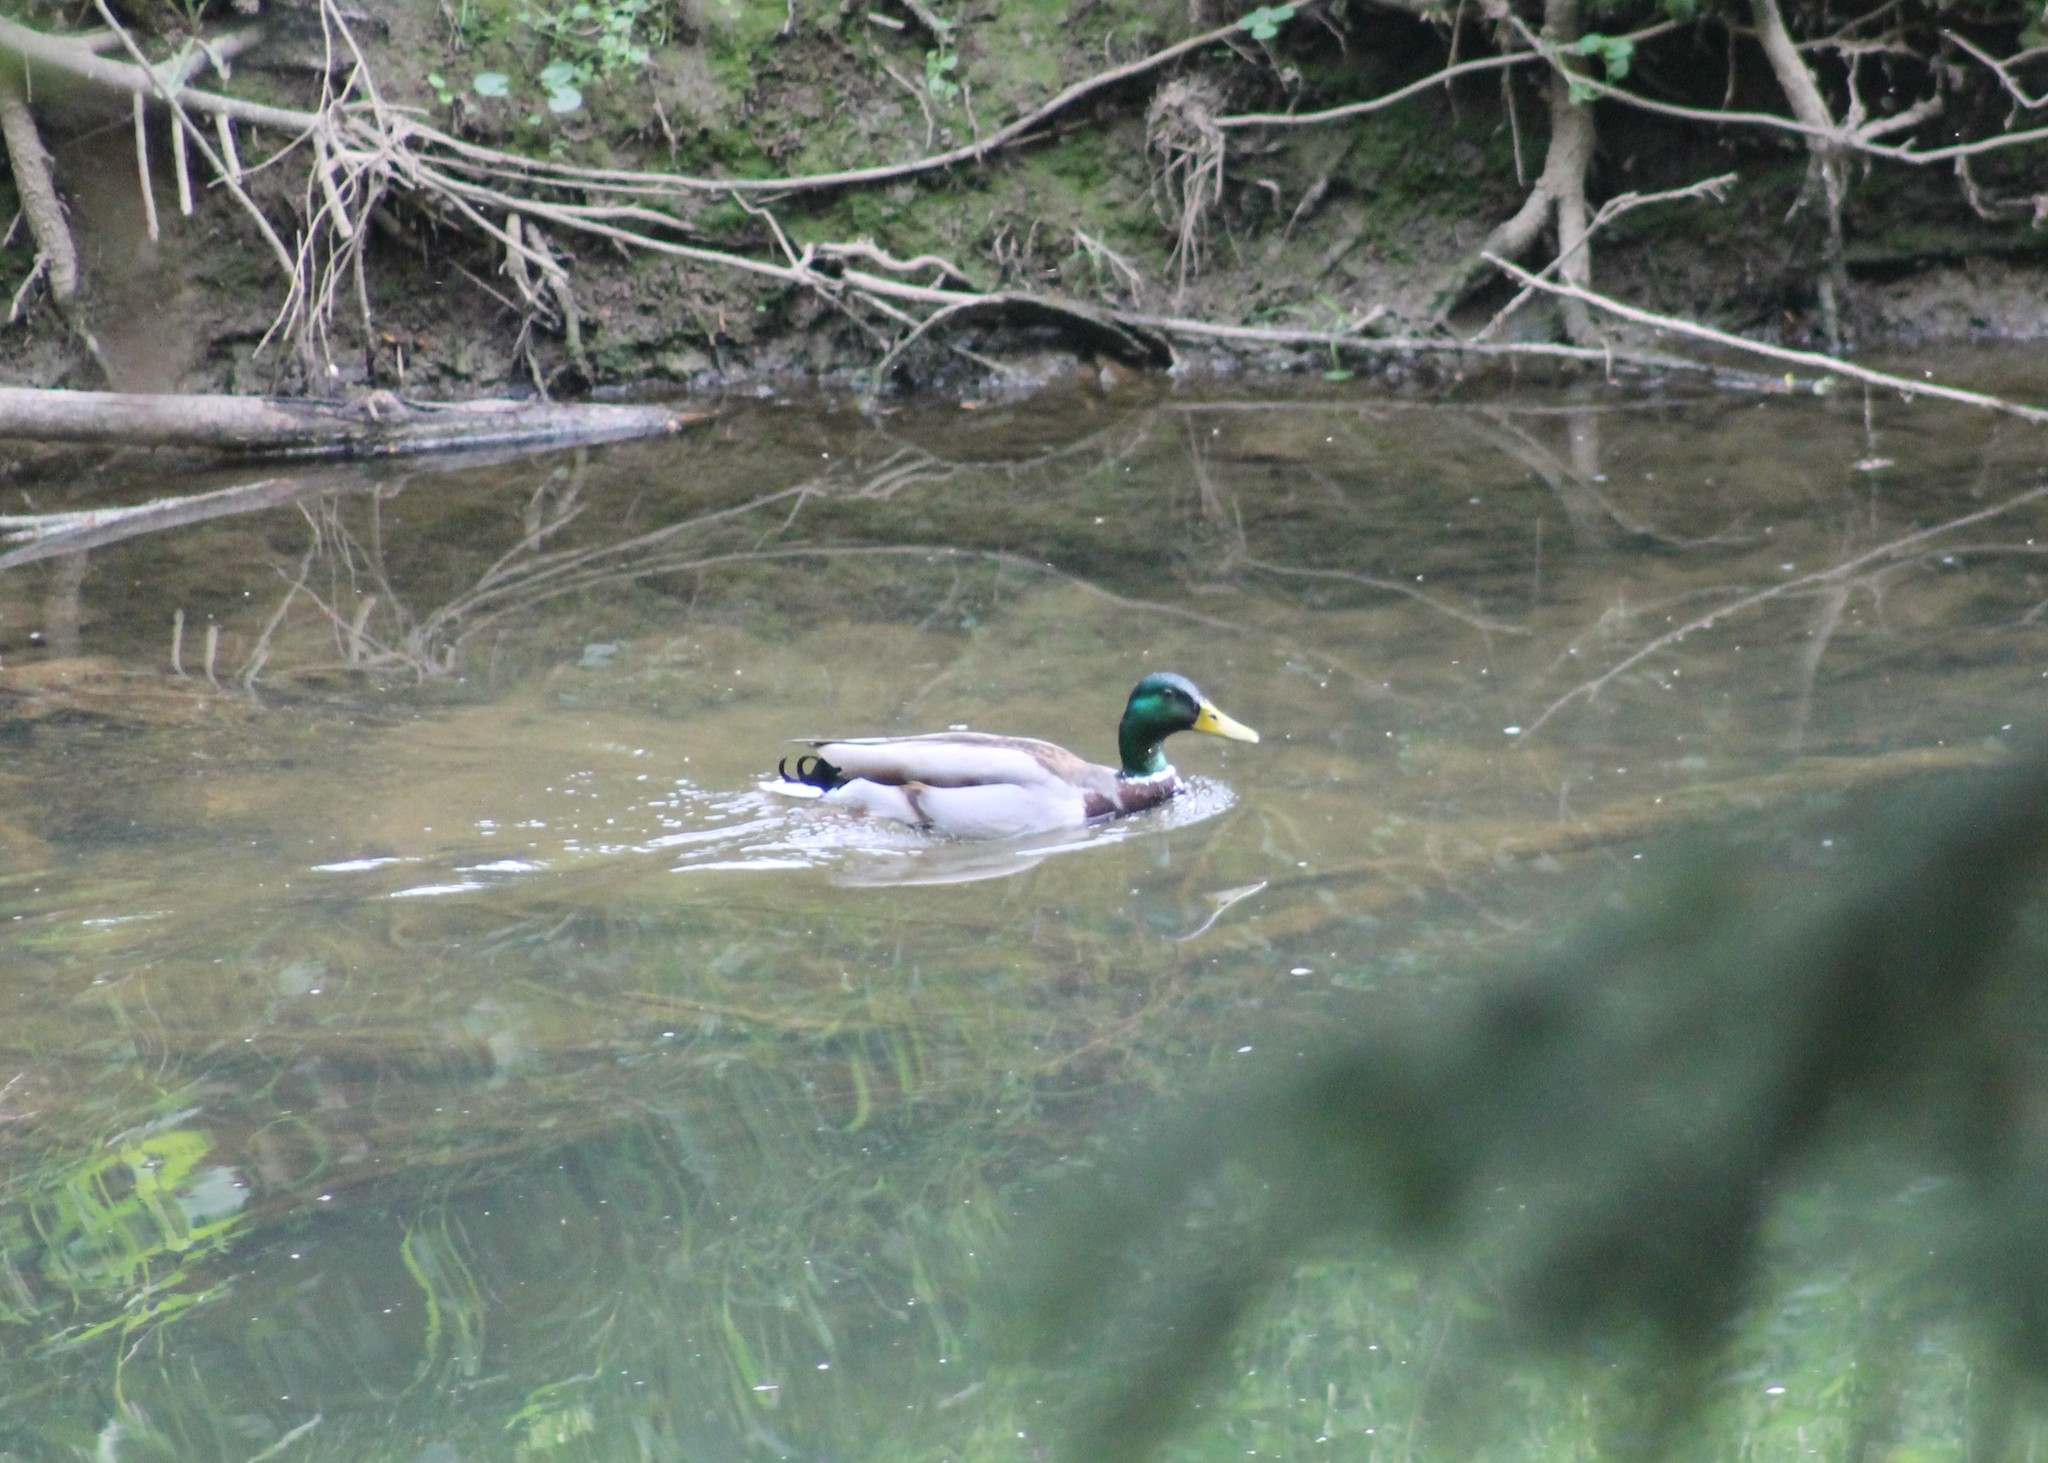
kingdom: Animalia
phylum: Chordata
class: Aves
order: Anseriformes
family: Anatidae
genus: Anas
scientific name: Anas platyrhynchos
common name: Mallard
